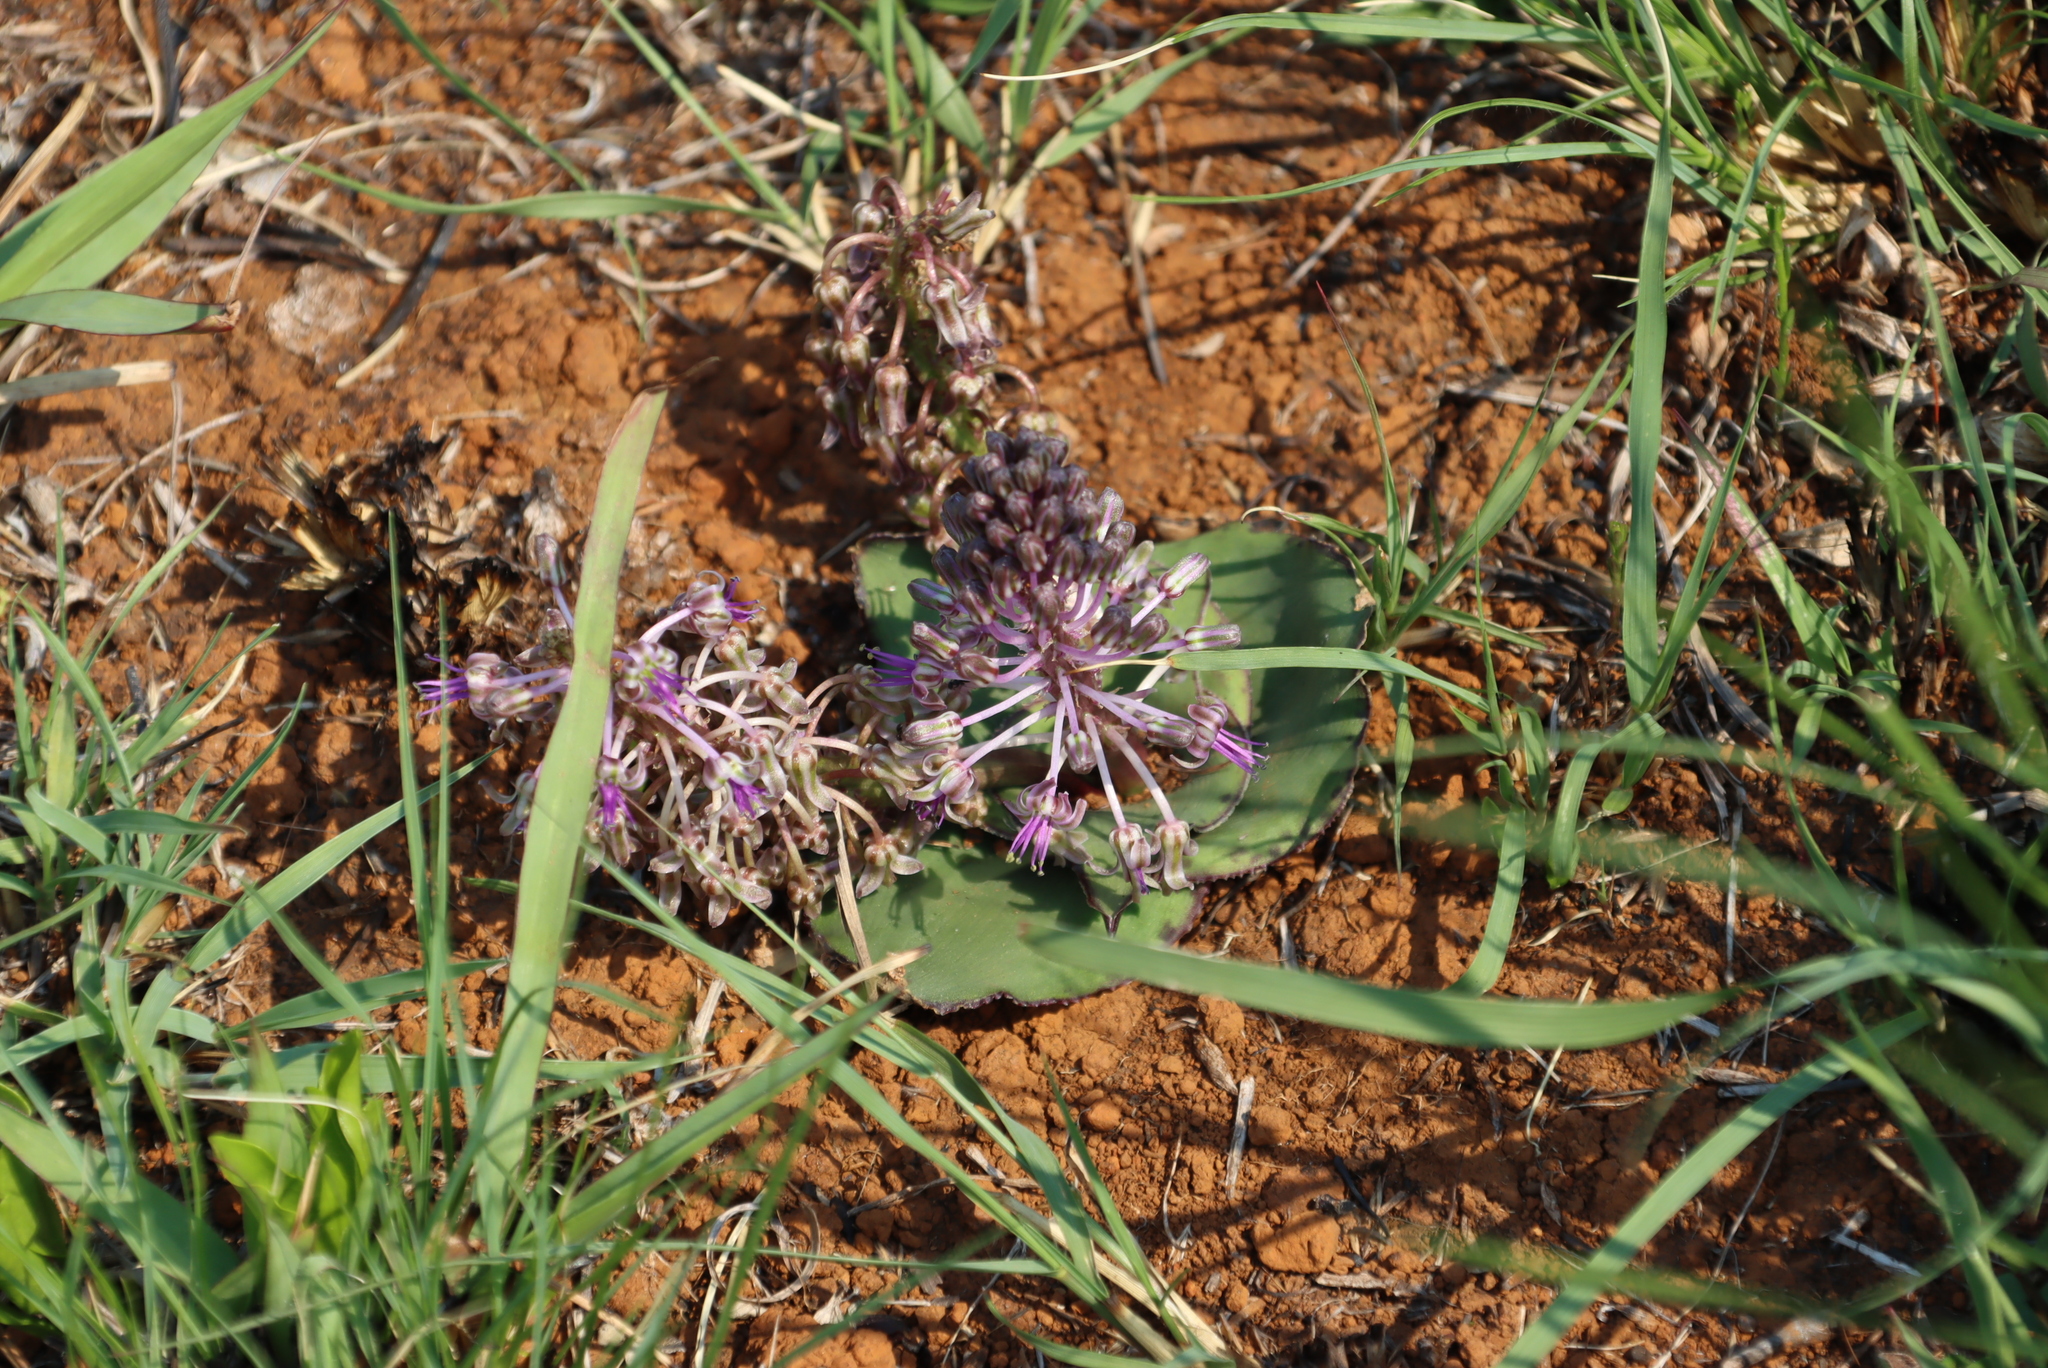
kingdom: Plantae
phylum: Tracheophyta
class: Liliopsida
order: Asparagales
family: Asparagaceae
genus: Ledebouria
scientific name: Ledebouria ovatifolia
